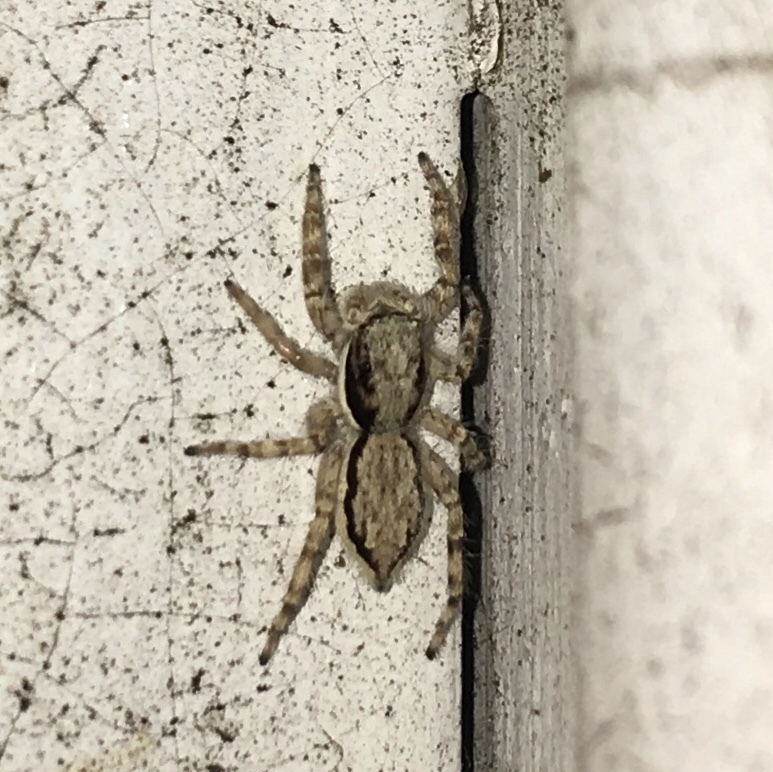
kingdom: Animalia
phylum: Arthropoda
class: Arachnida
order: Araneae
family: Salticidae
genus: Menemerus
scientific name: Menemerus bivittatus
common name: Gray wall jumper
